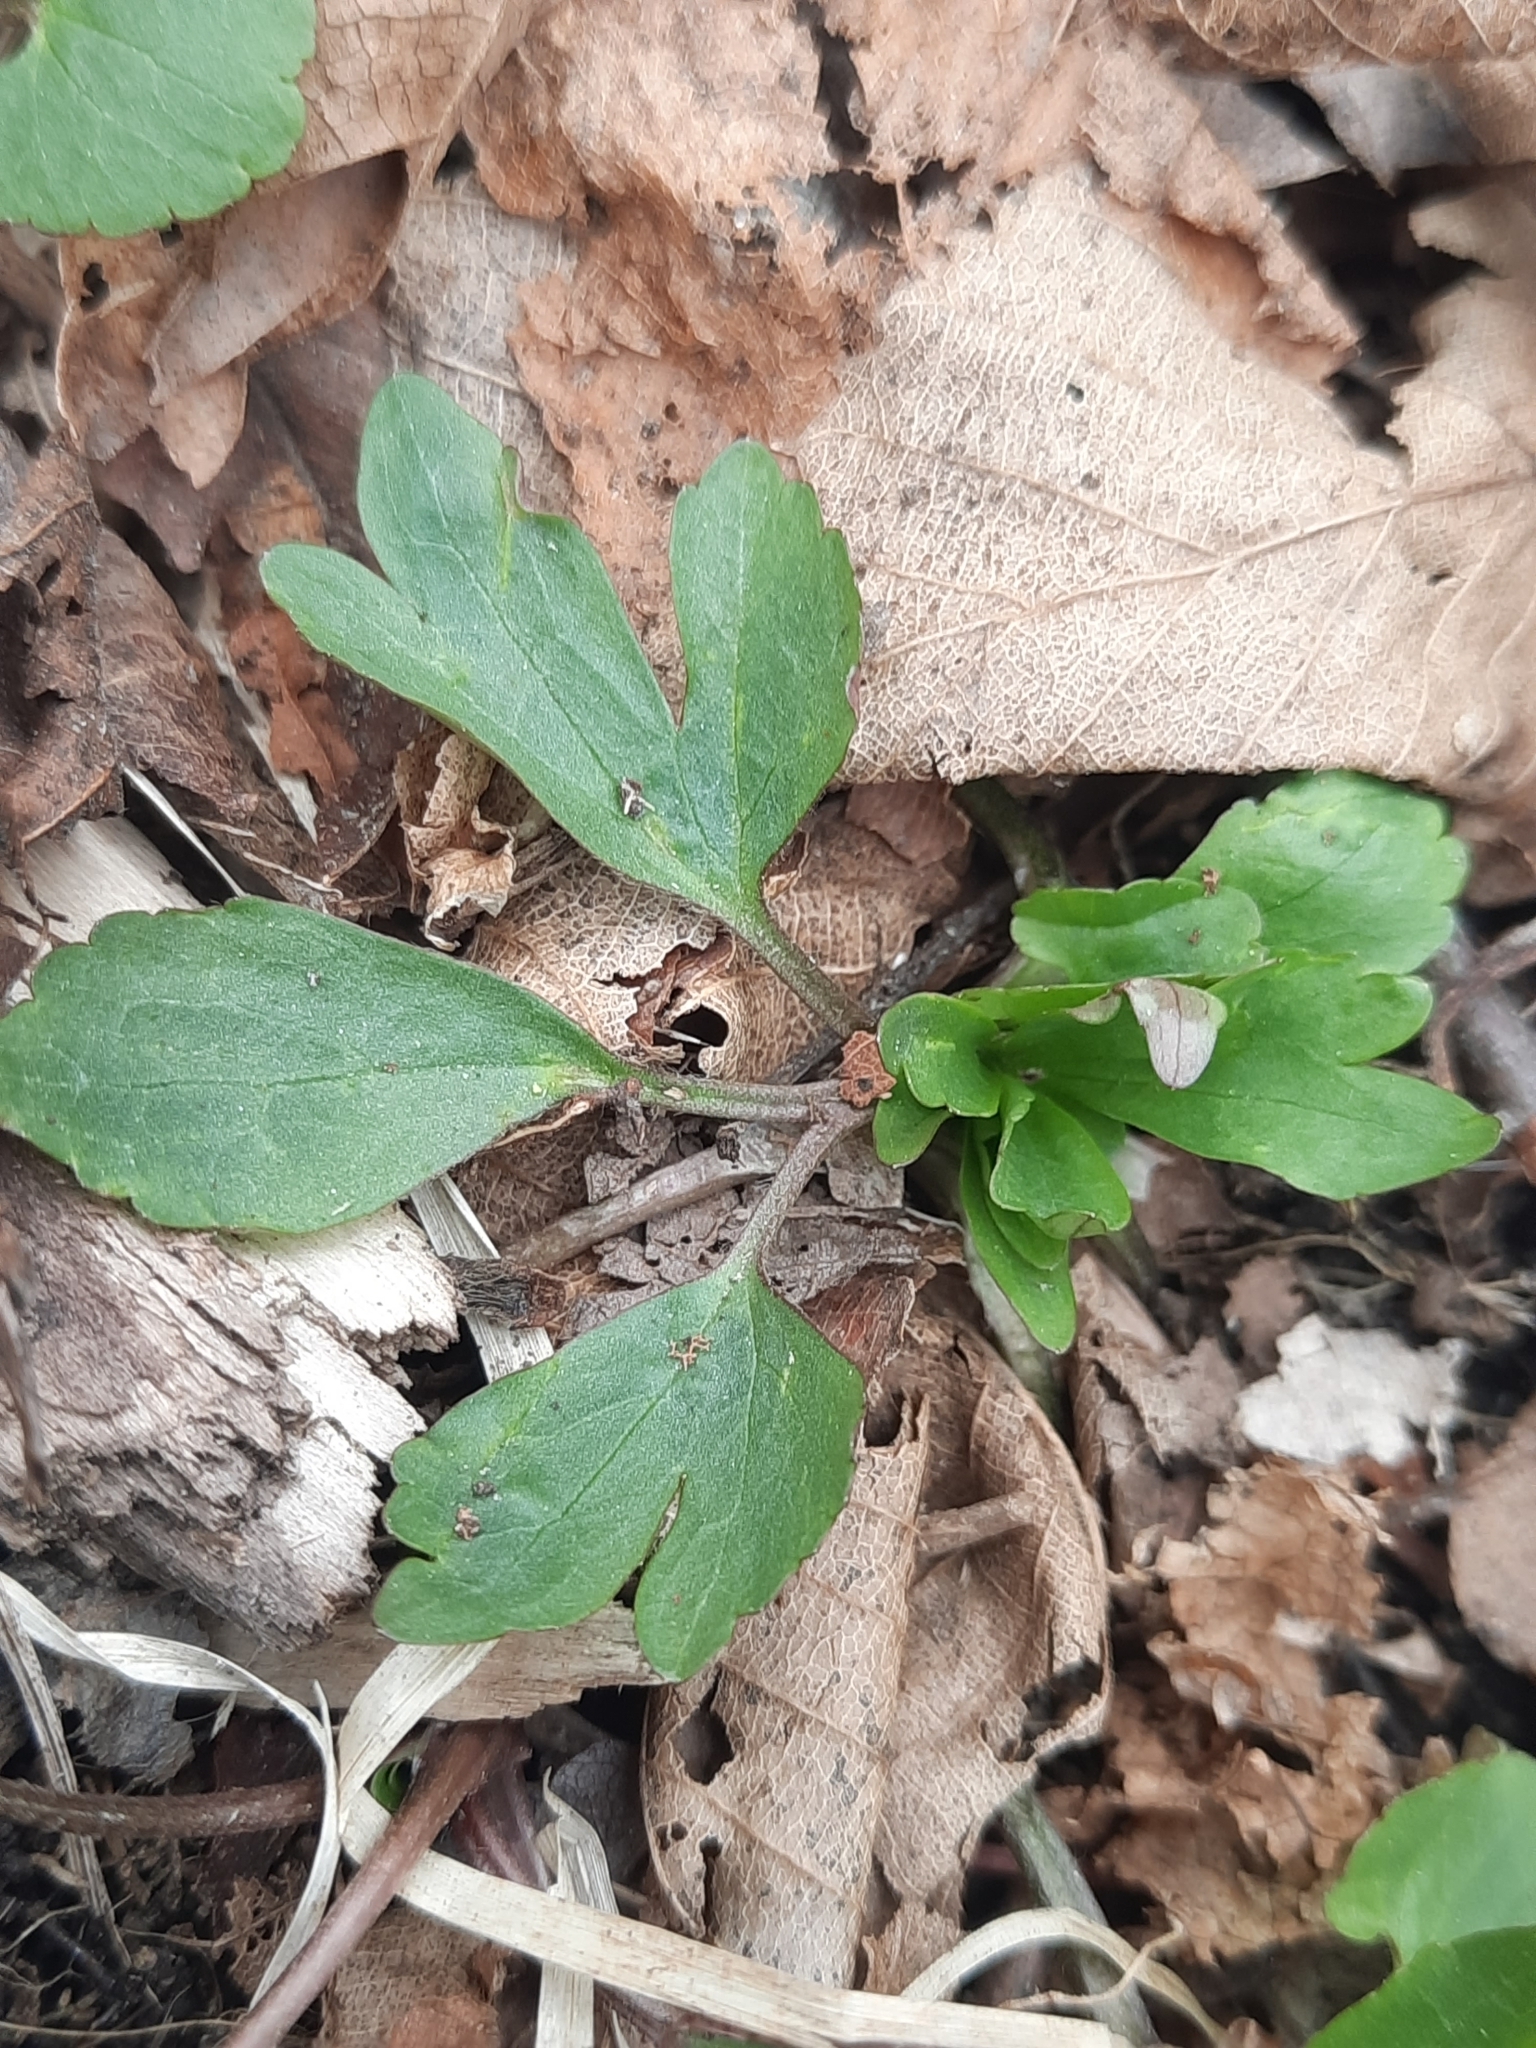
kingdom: Plantae
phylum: Tracheophyta
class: Magnoliopsida
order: Ranunculales
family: Ranunculaceae
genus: Ranunculus
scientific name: Ranunculus abortivus
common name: Early wood buttercup
